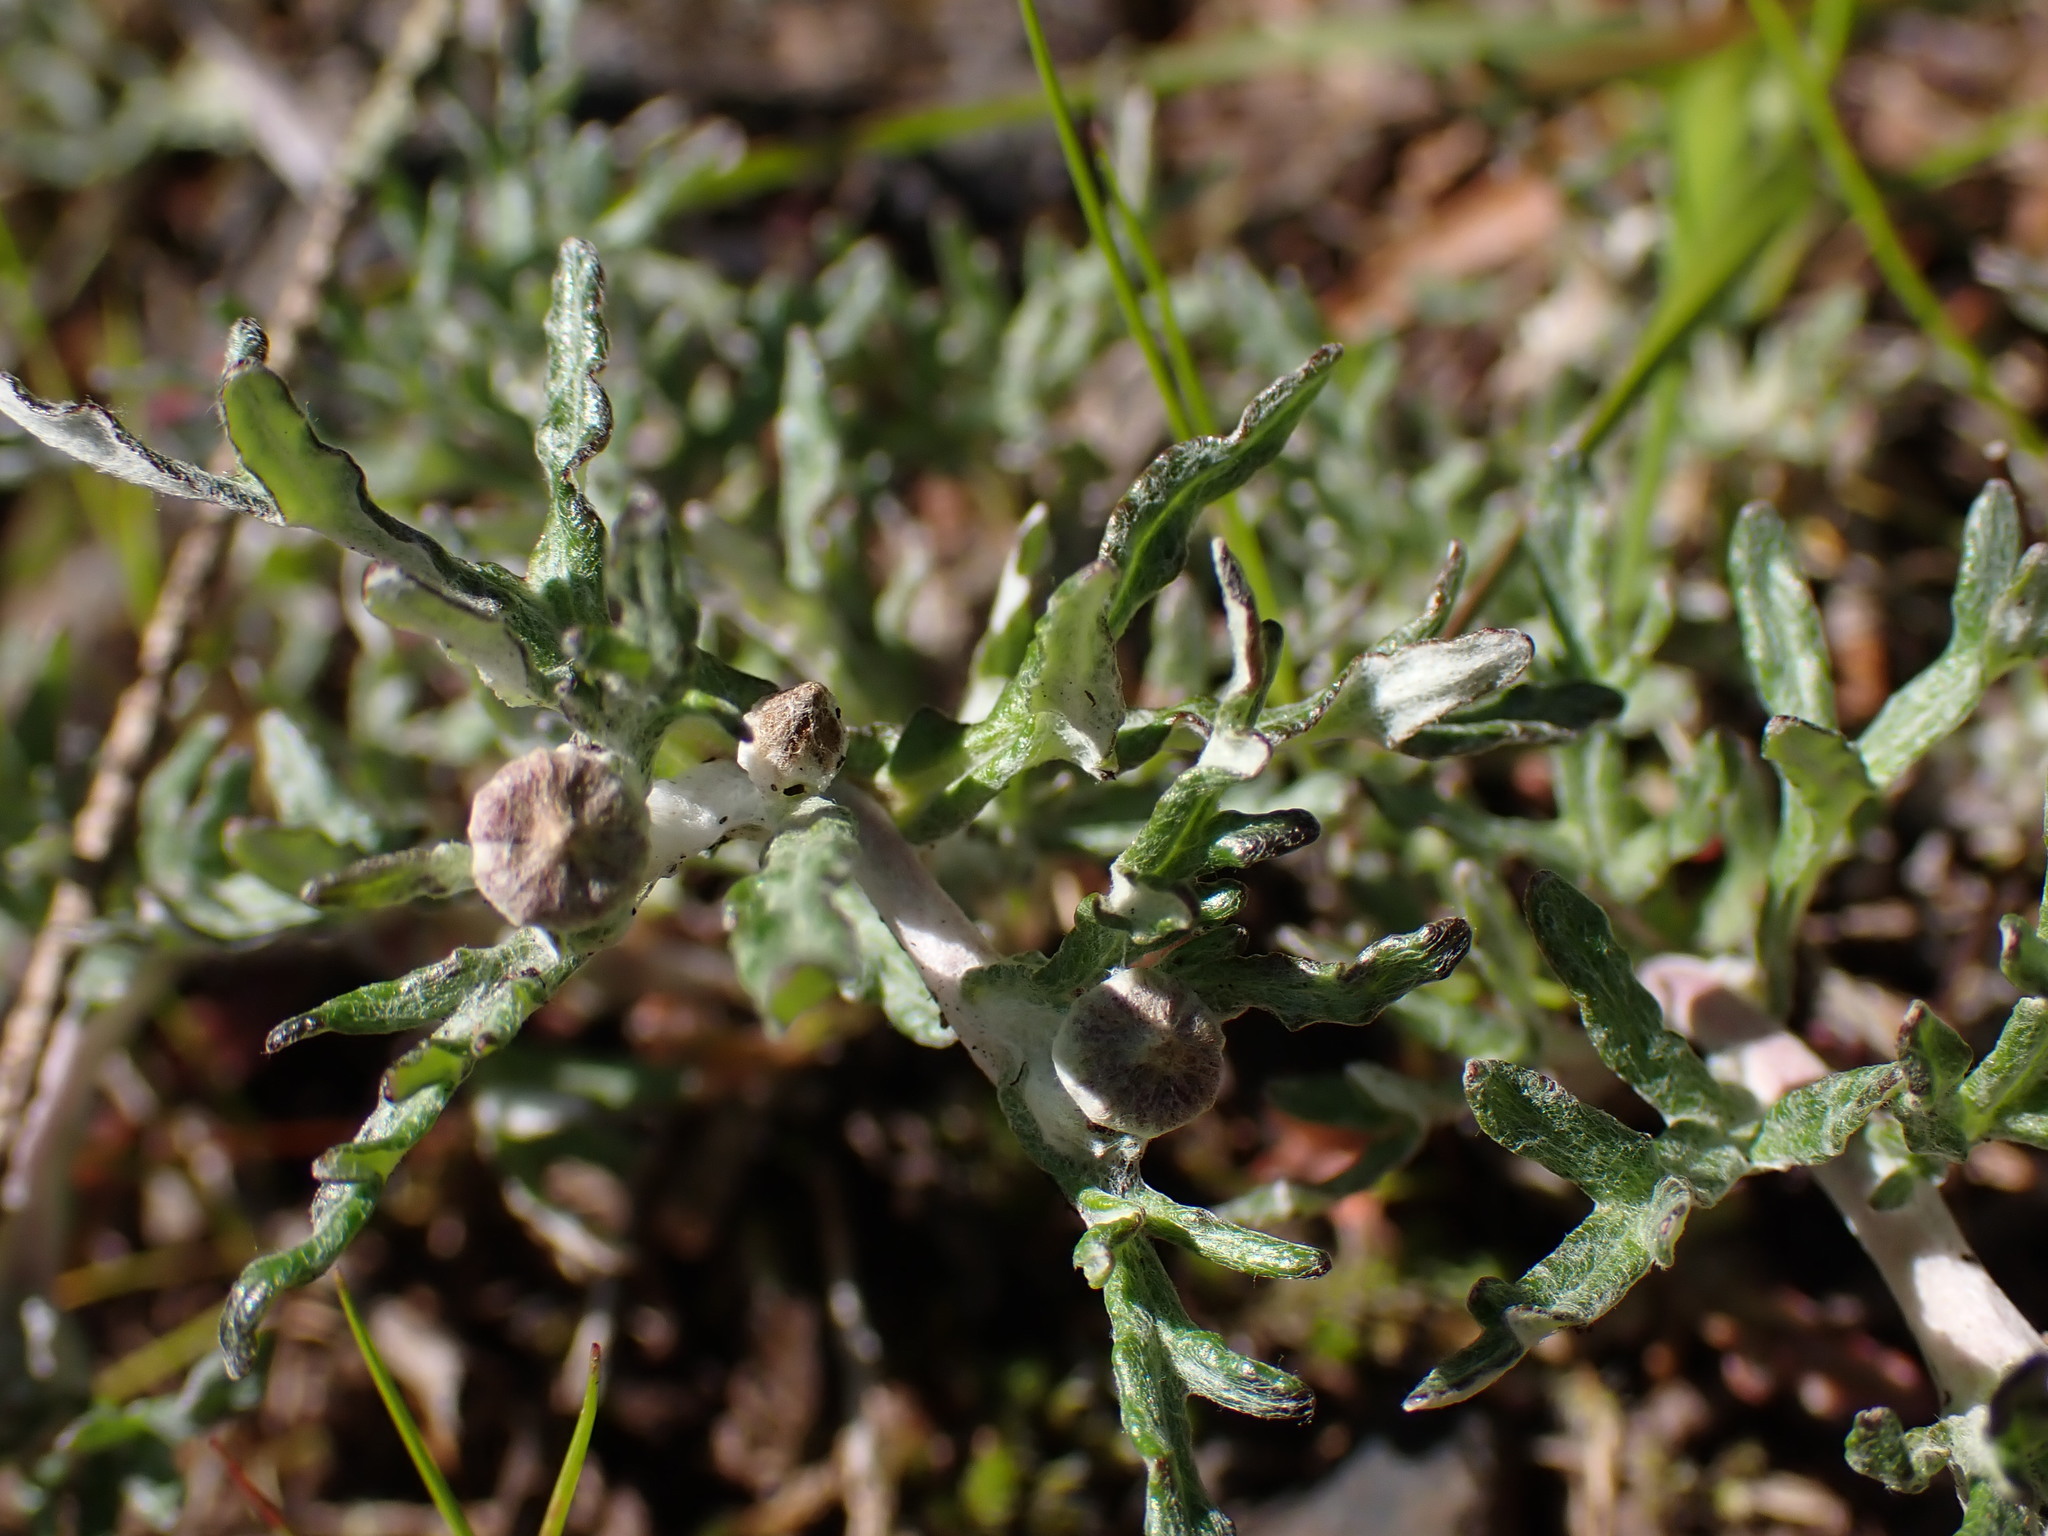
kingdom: Plantae
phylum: Tracheophyta
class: Magnoliopsida
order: Asterales
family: Asteraceae
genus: Eriophyllum
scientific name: Eriophyllum lanatum
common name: Common woolly-sunflower
